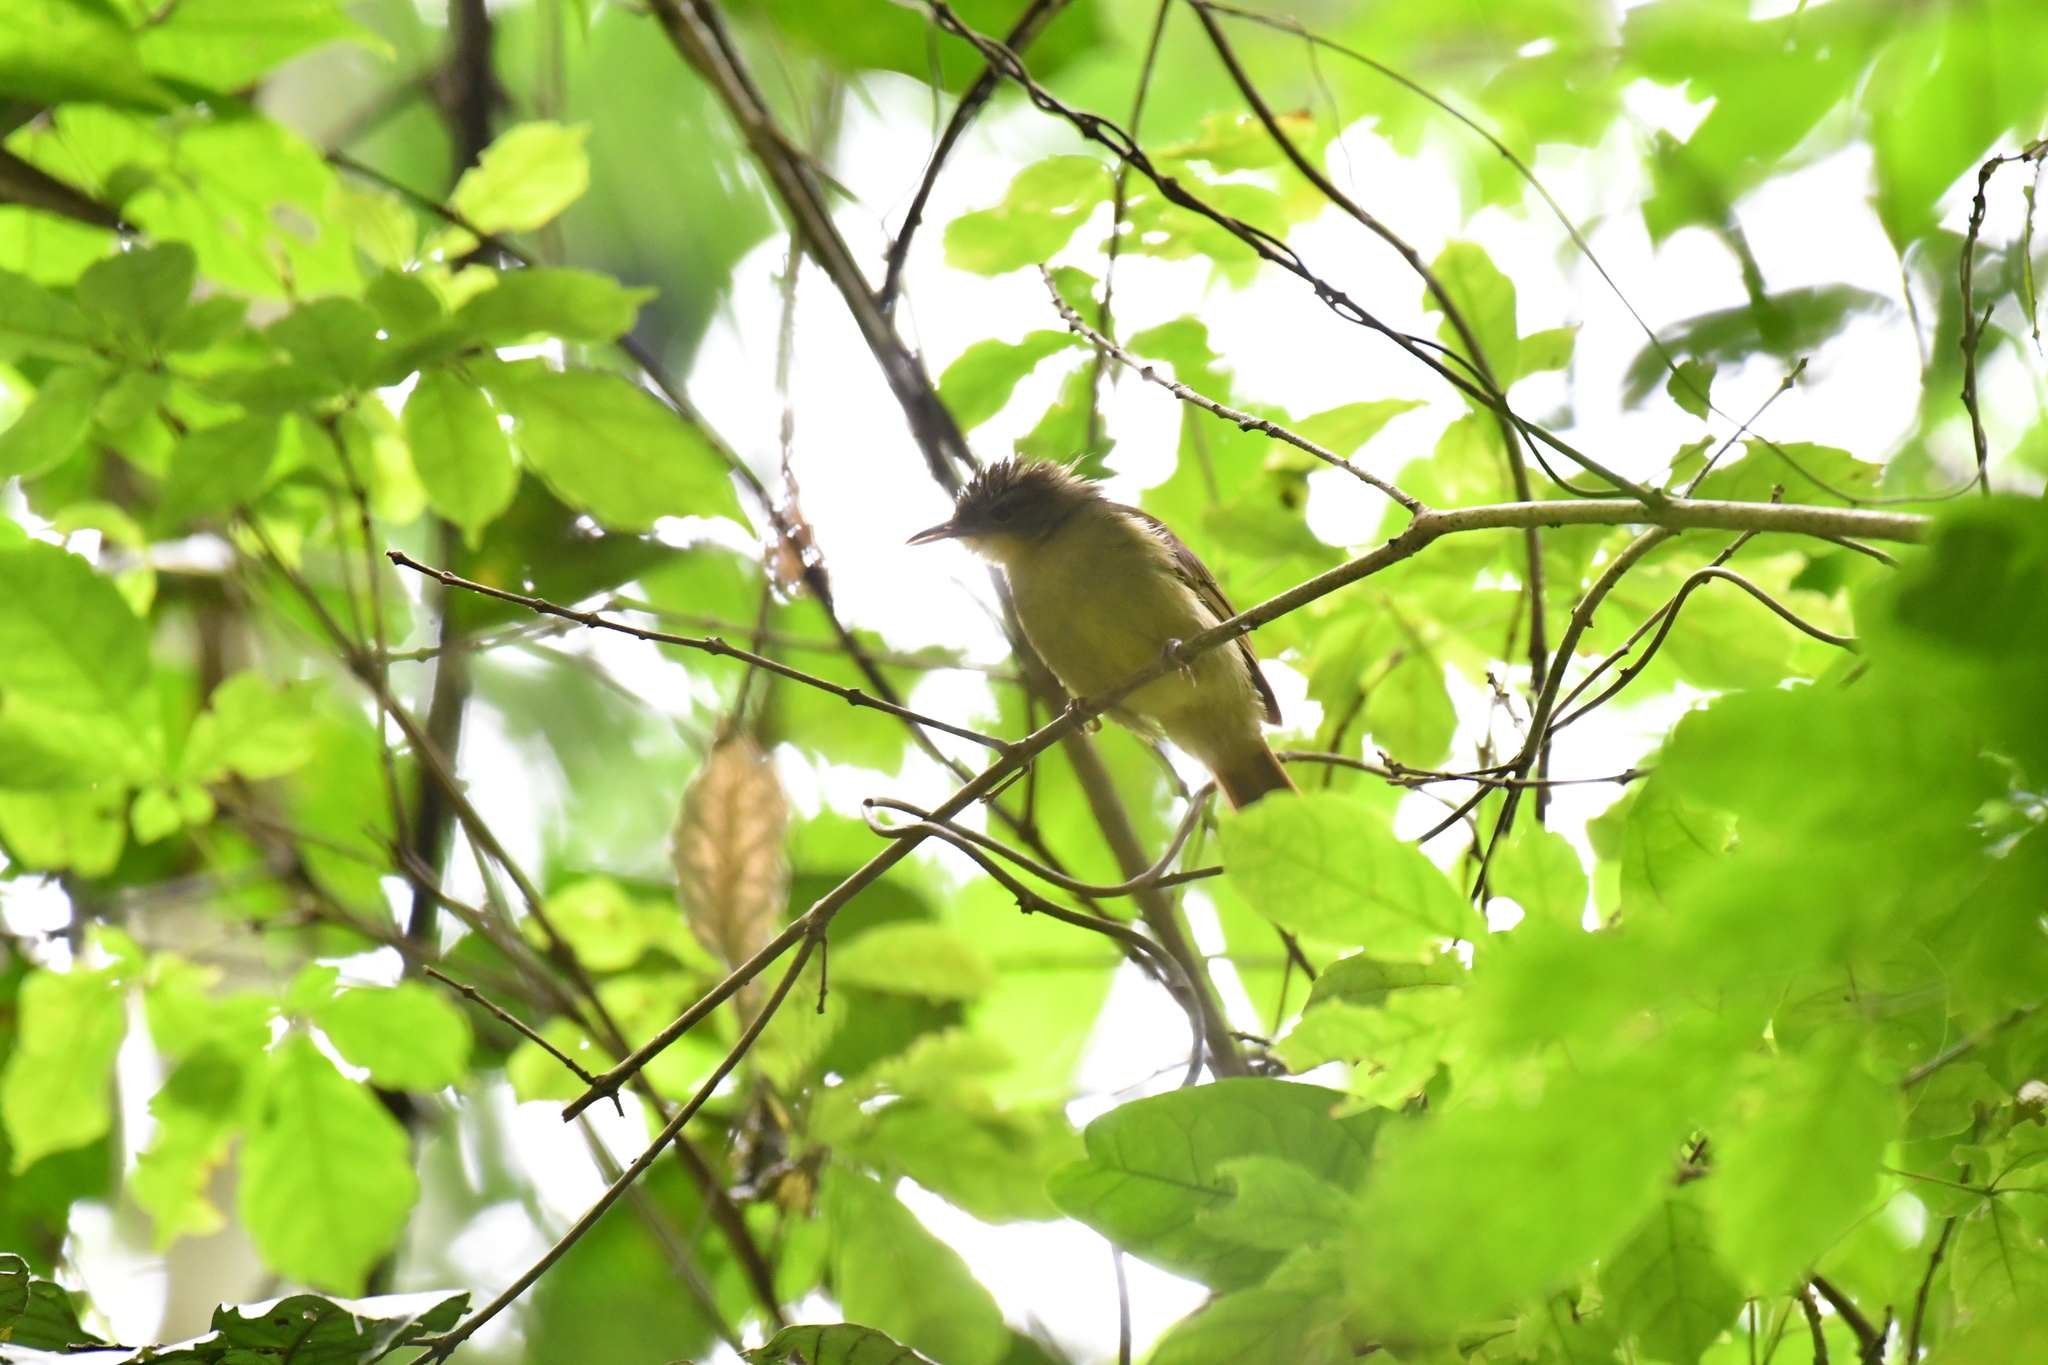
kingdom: Animalia
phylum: Chordata
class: Aves
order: Passeriformes
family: Pycnonotidae
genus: Phyllastrephus
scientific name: Phyllastrephus icterinus
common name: Icterine greenbul
